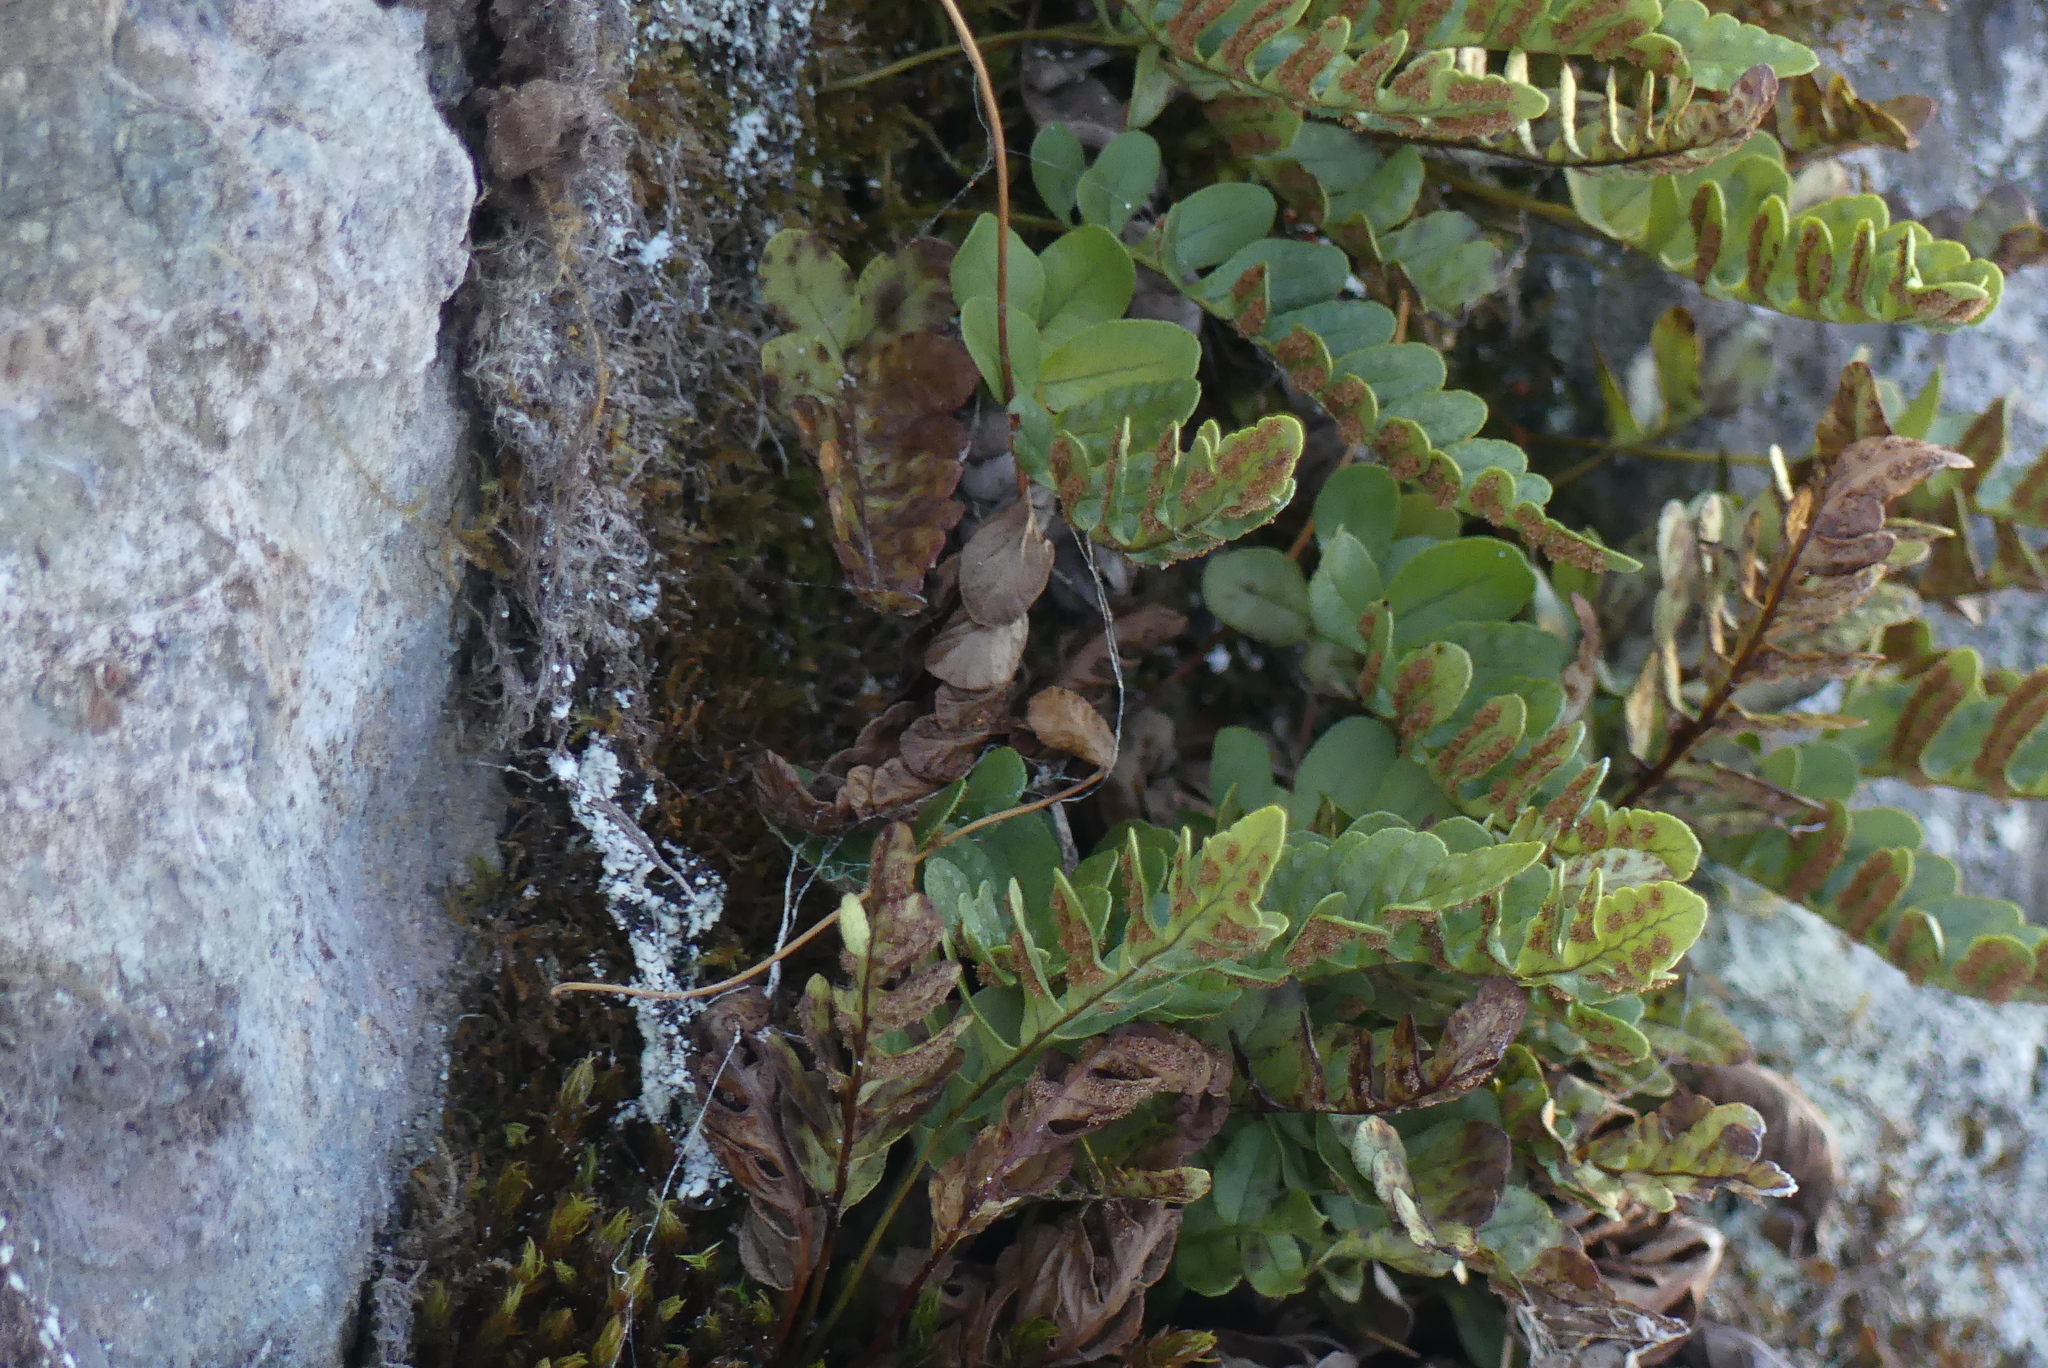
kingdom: Plantae
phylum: Tracheophyta
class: Polypodiopsida
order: Polypodiales
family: Polypodiaceae
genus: Polypodium
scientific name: Polypodium amorphum
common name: Pacific polypody
